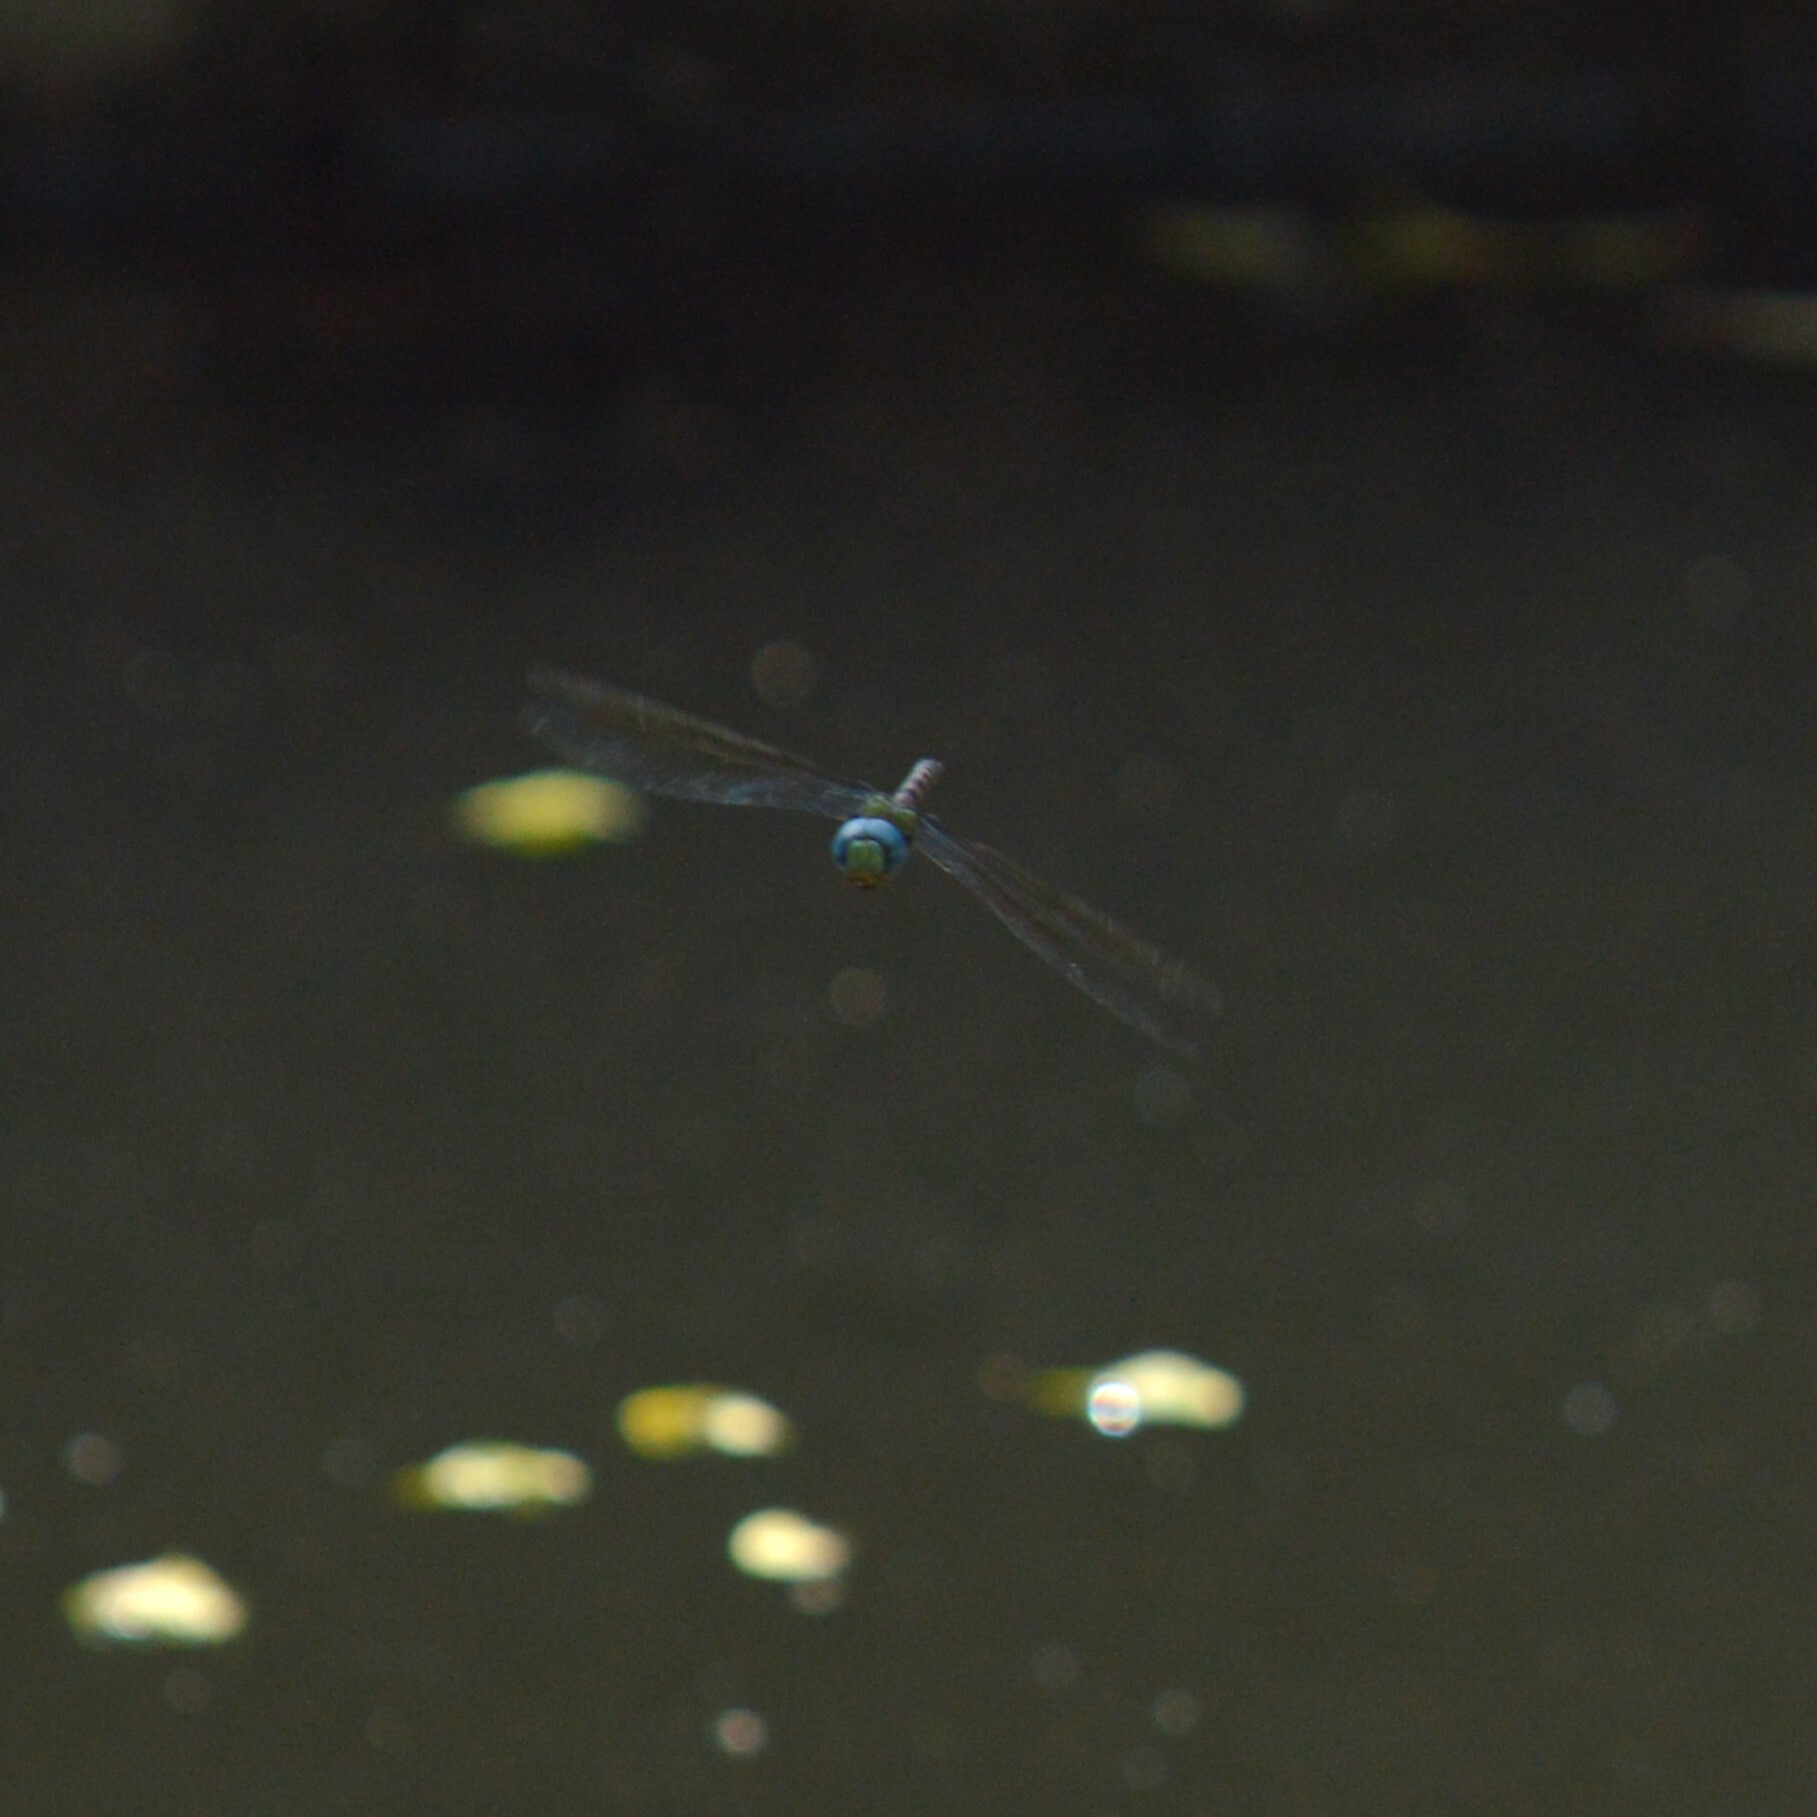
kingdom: Animalia
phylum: Arthropoda
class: Insecta
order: Odonata
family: Aeshnidae
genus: Anax
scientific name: Anax immaculifrons
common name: Magnificent emperor
